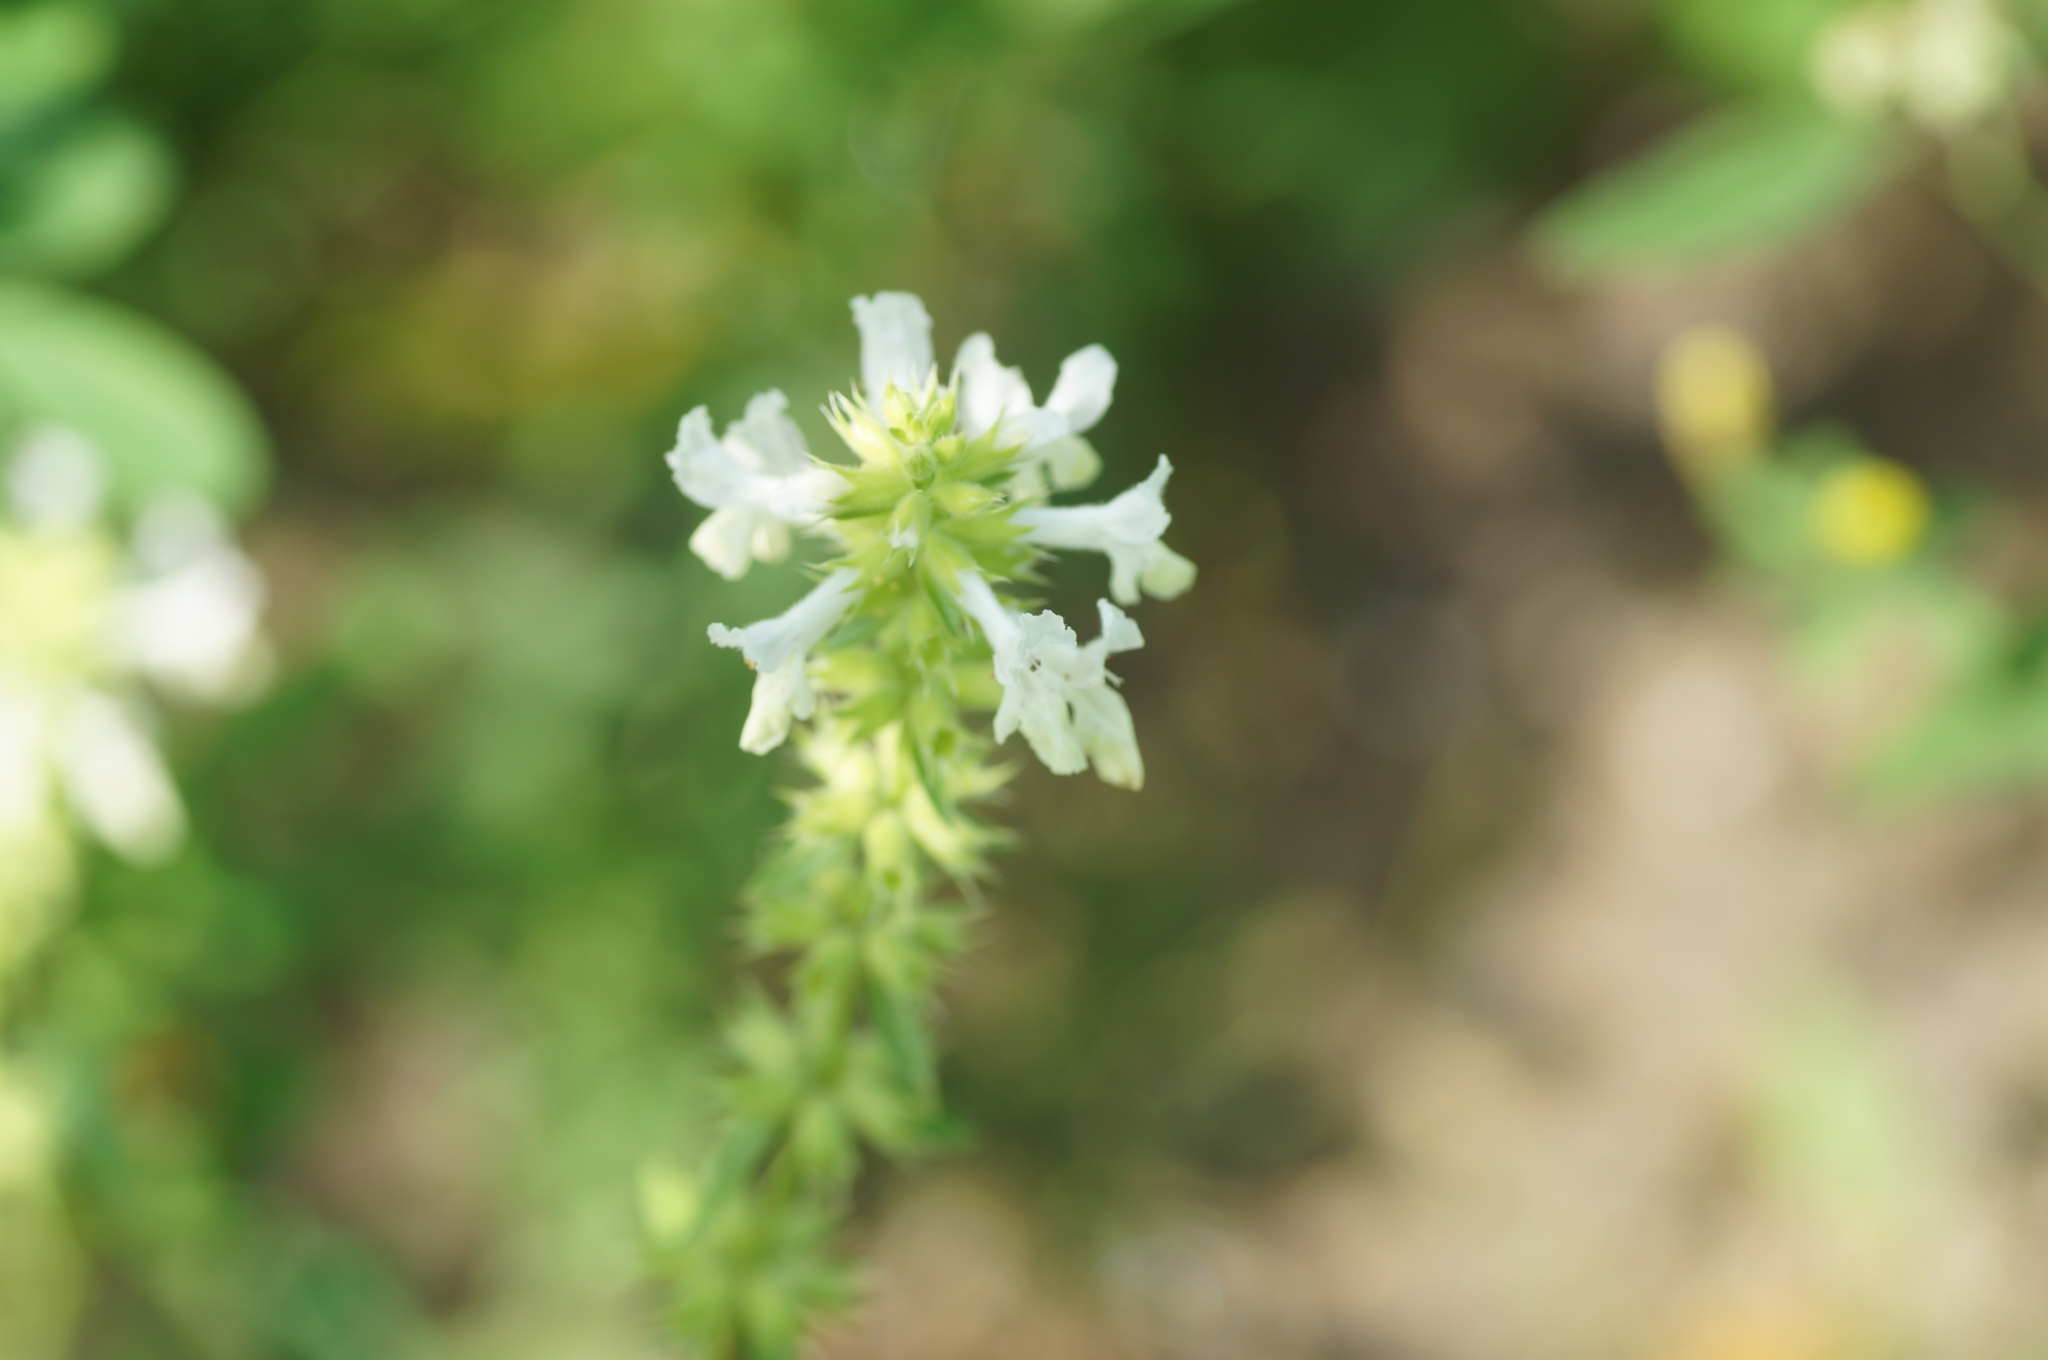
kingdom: Plantae
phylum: Tracheophyta
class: Magnoliopsida
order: Lamiales
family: Lamiaceae
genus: Stachys
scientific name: Stachys annua
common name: Annual yellow-woundwort
